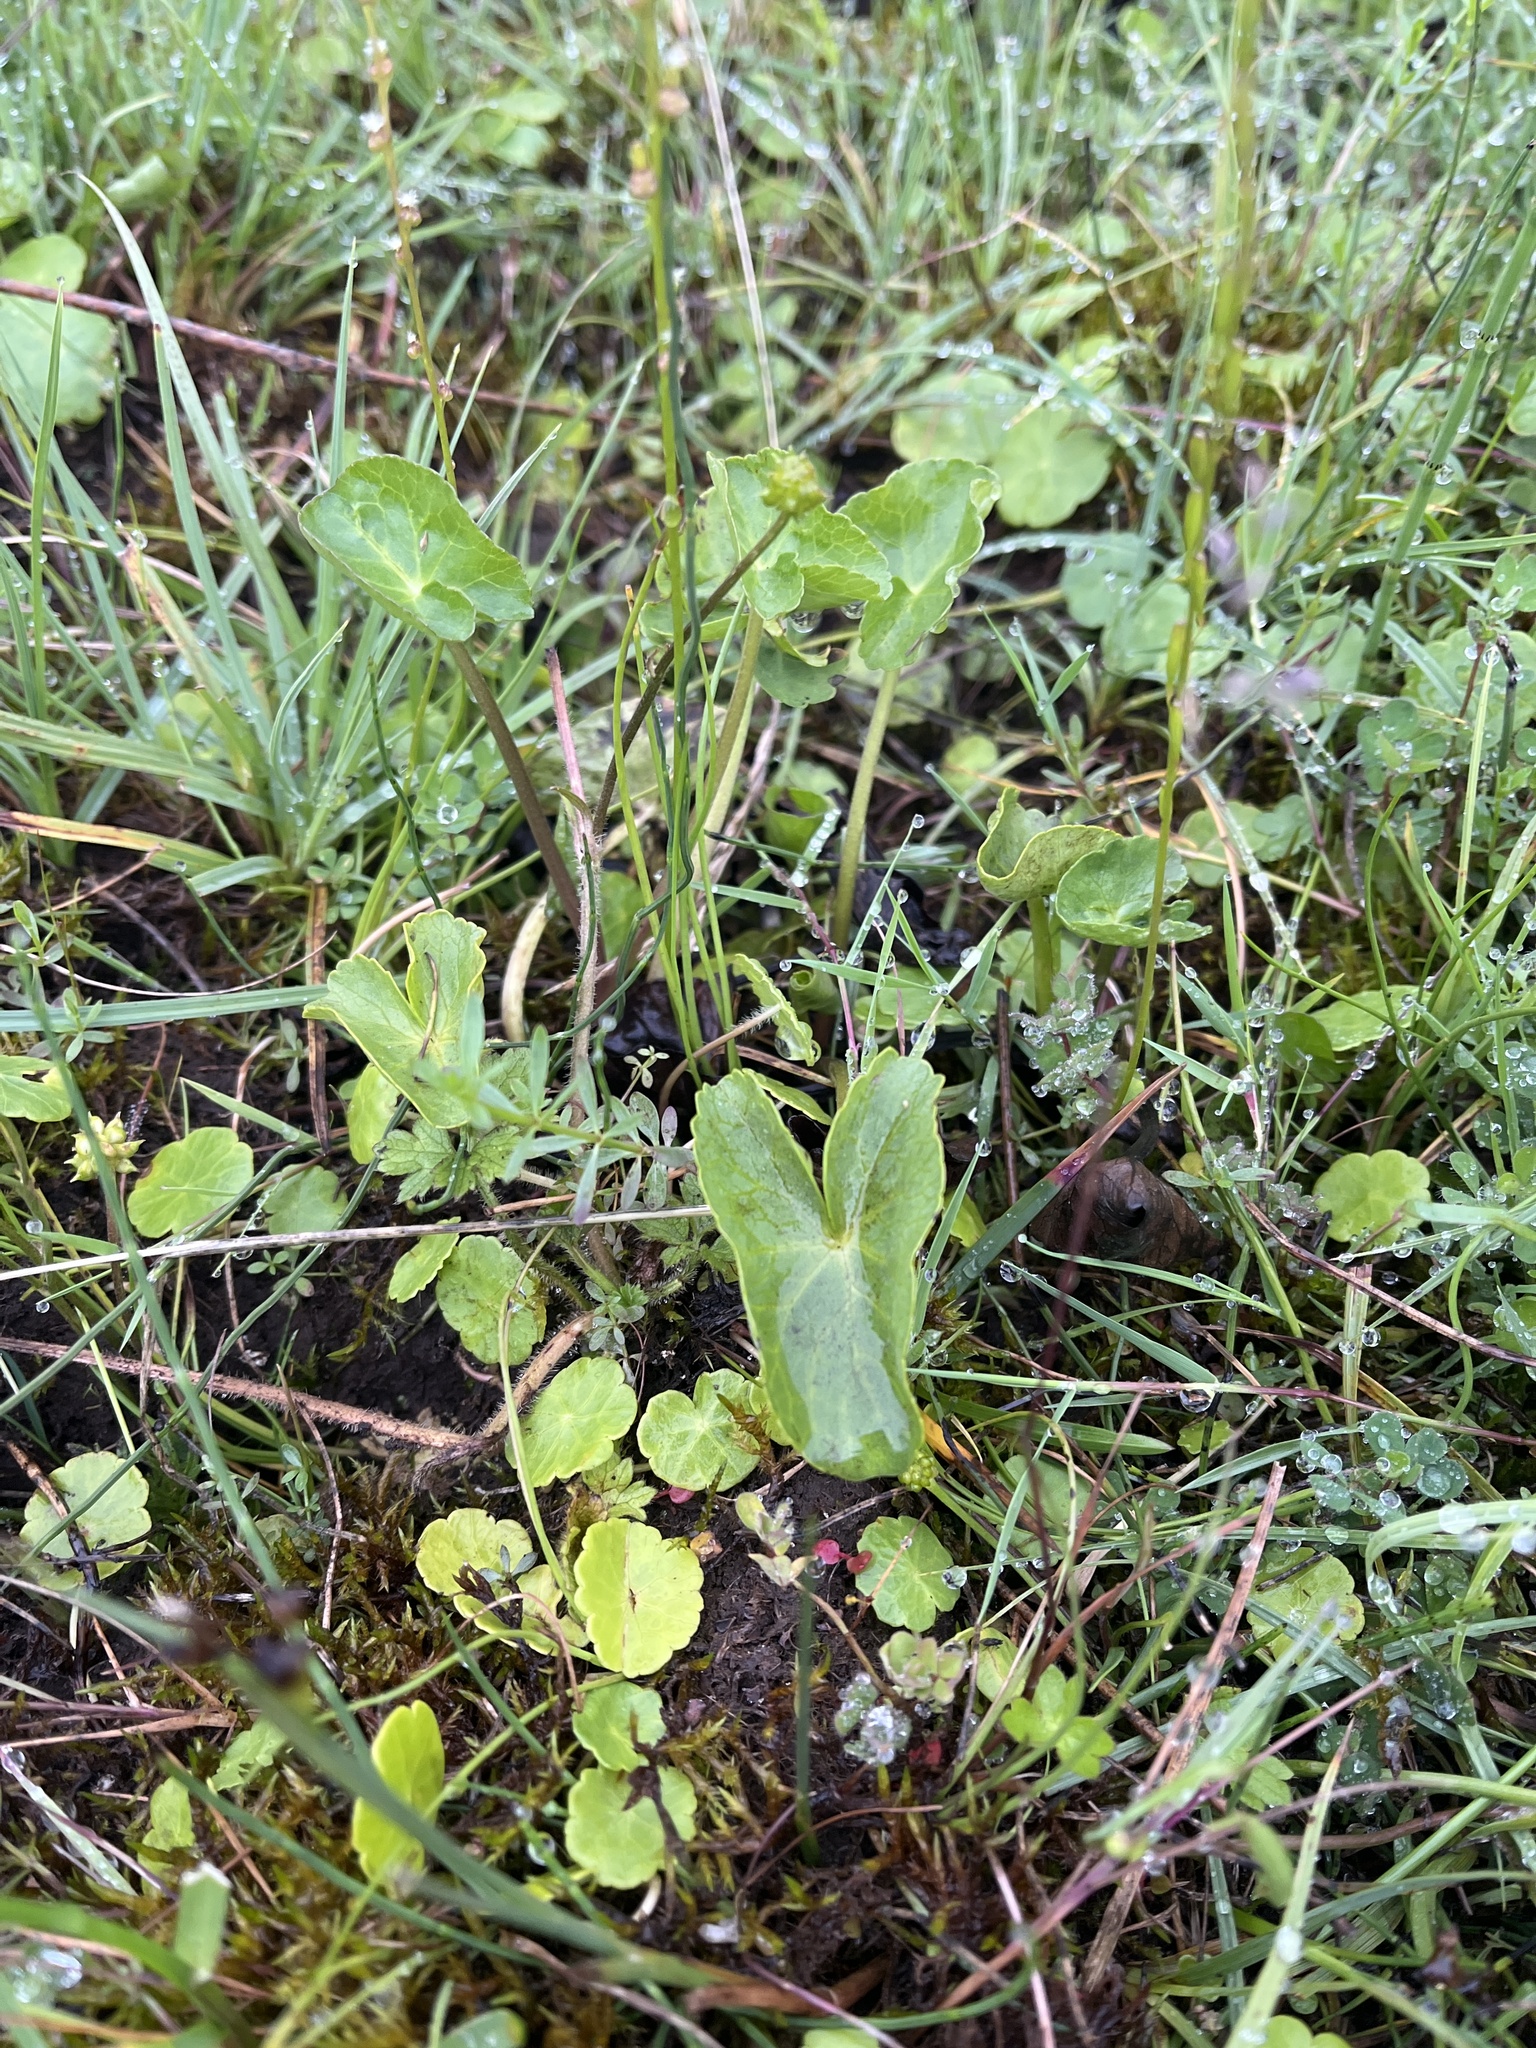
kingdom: Plantae
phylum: Tracheophyta
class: Magnoliopsida
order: Ranunculales
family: Ranunculaceae
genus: Caltha
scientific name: Caltha palustris
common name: Marsh marigold
